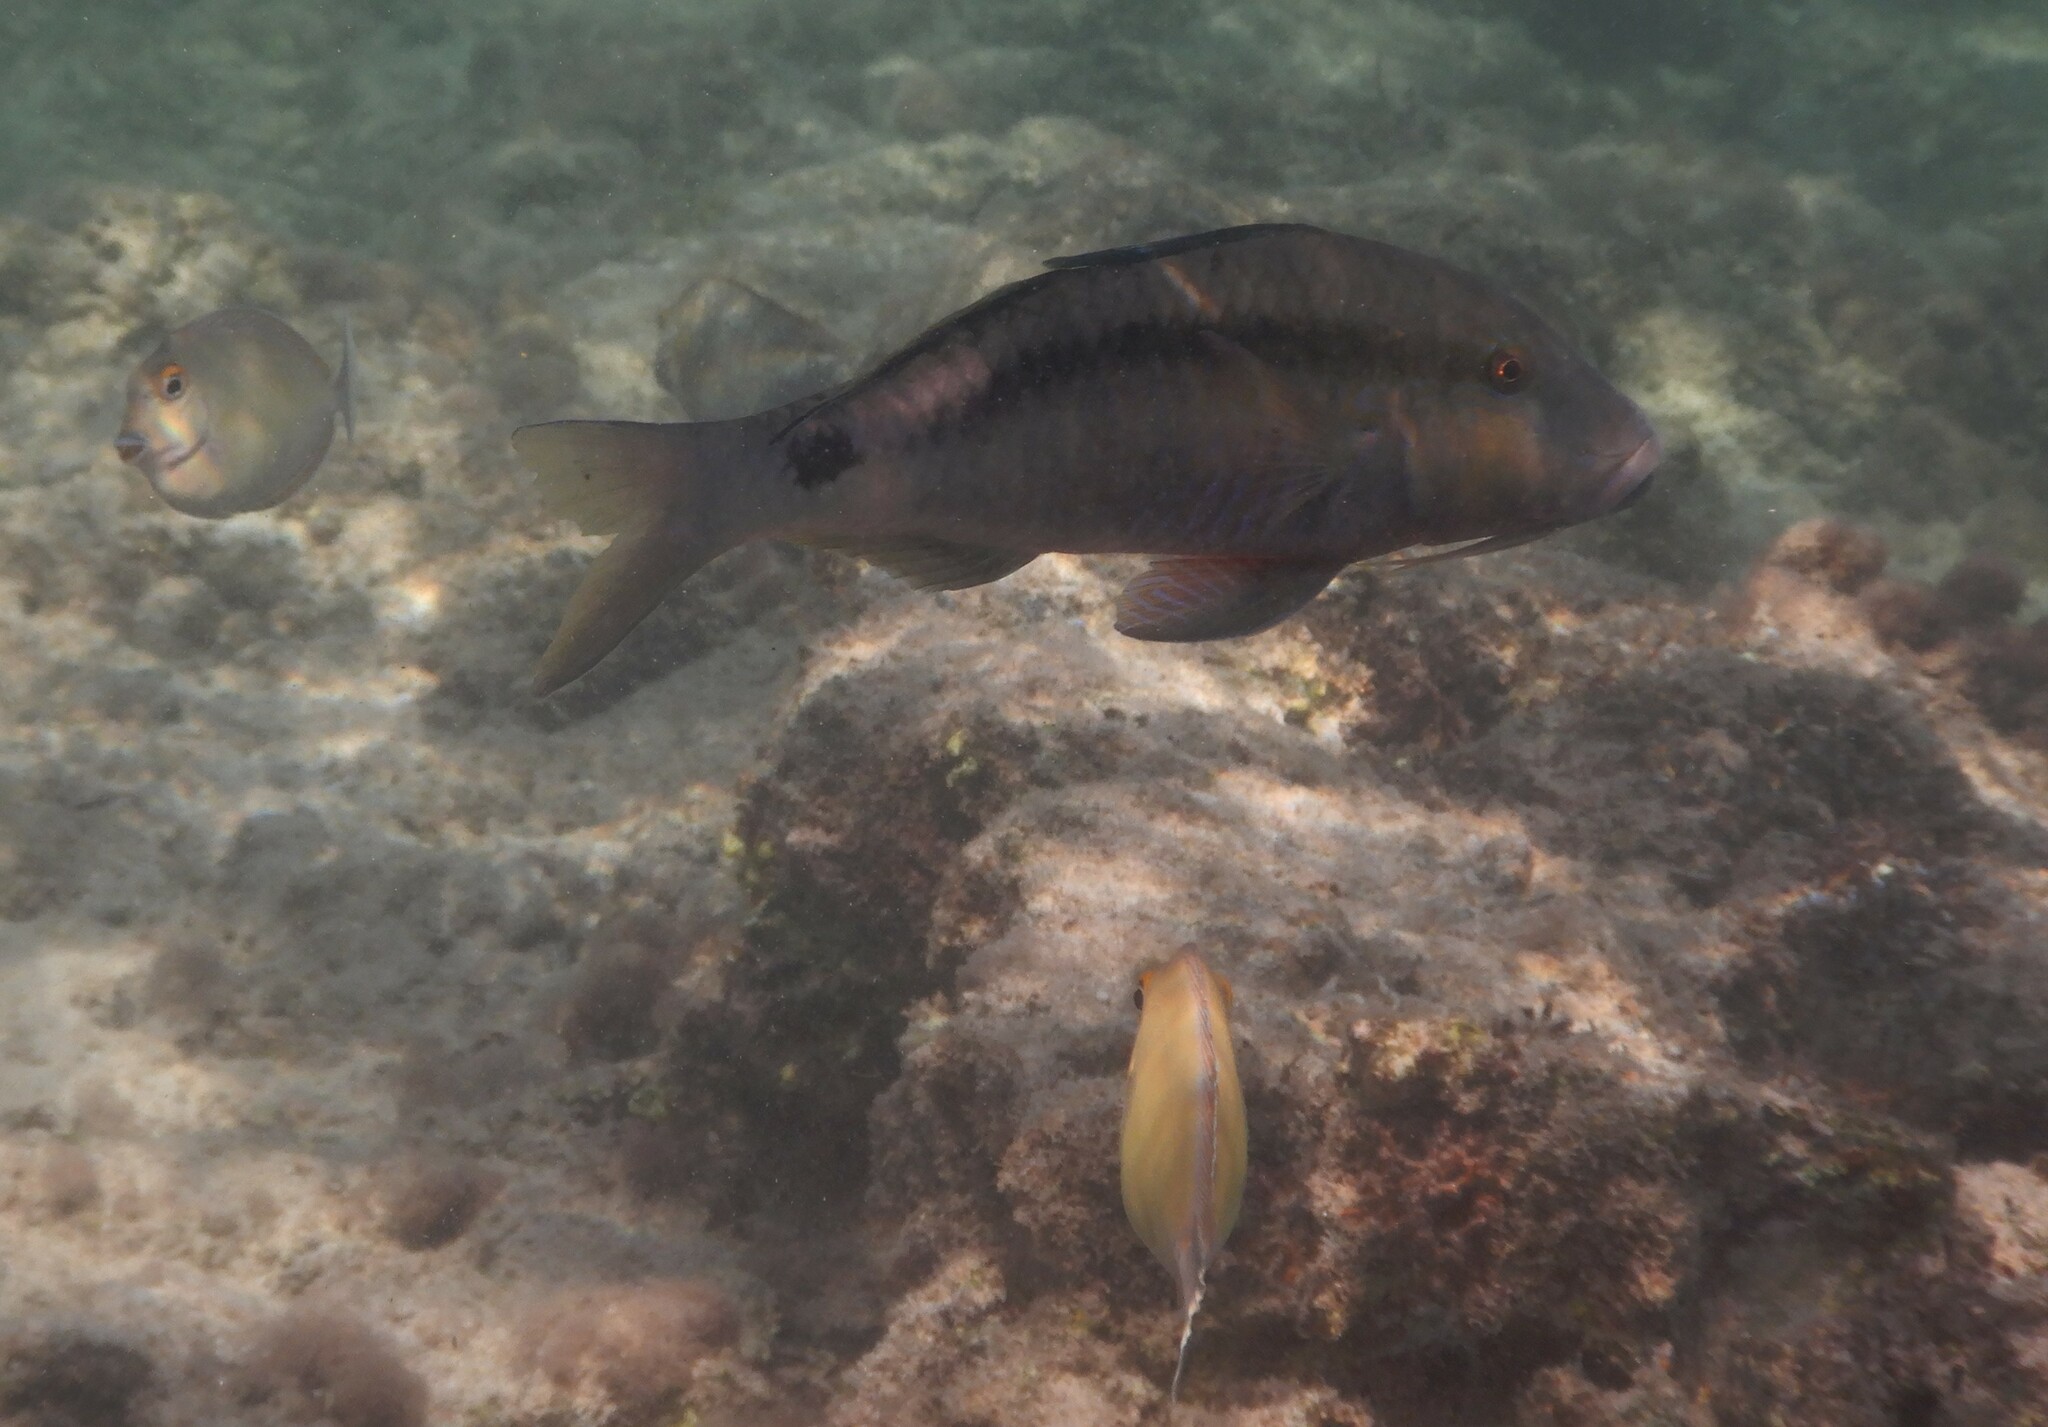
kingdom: Animalia
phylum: Chordata
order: Perciformes
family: Mullidae
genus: Parupeneus
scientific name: Parupeneus macronemus
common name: Long-barbel goatfish
